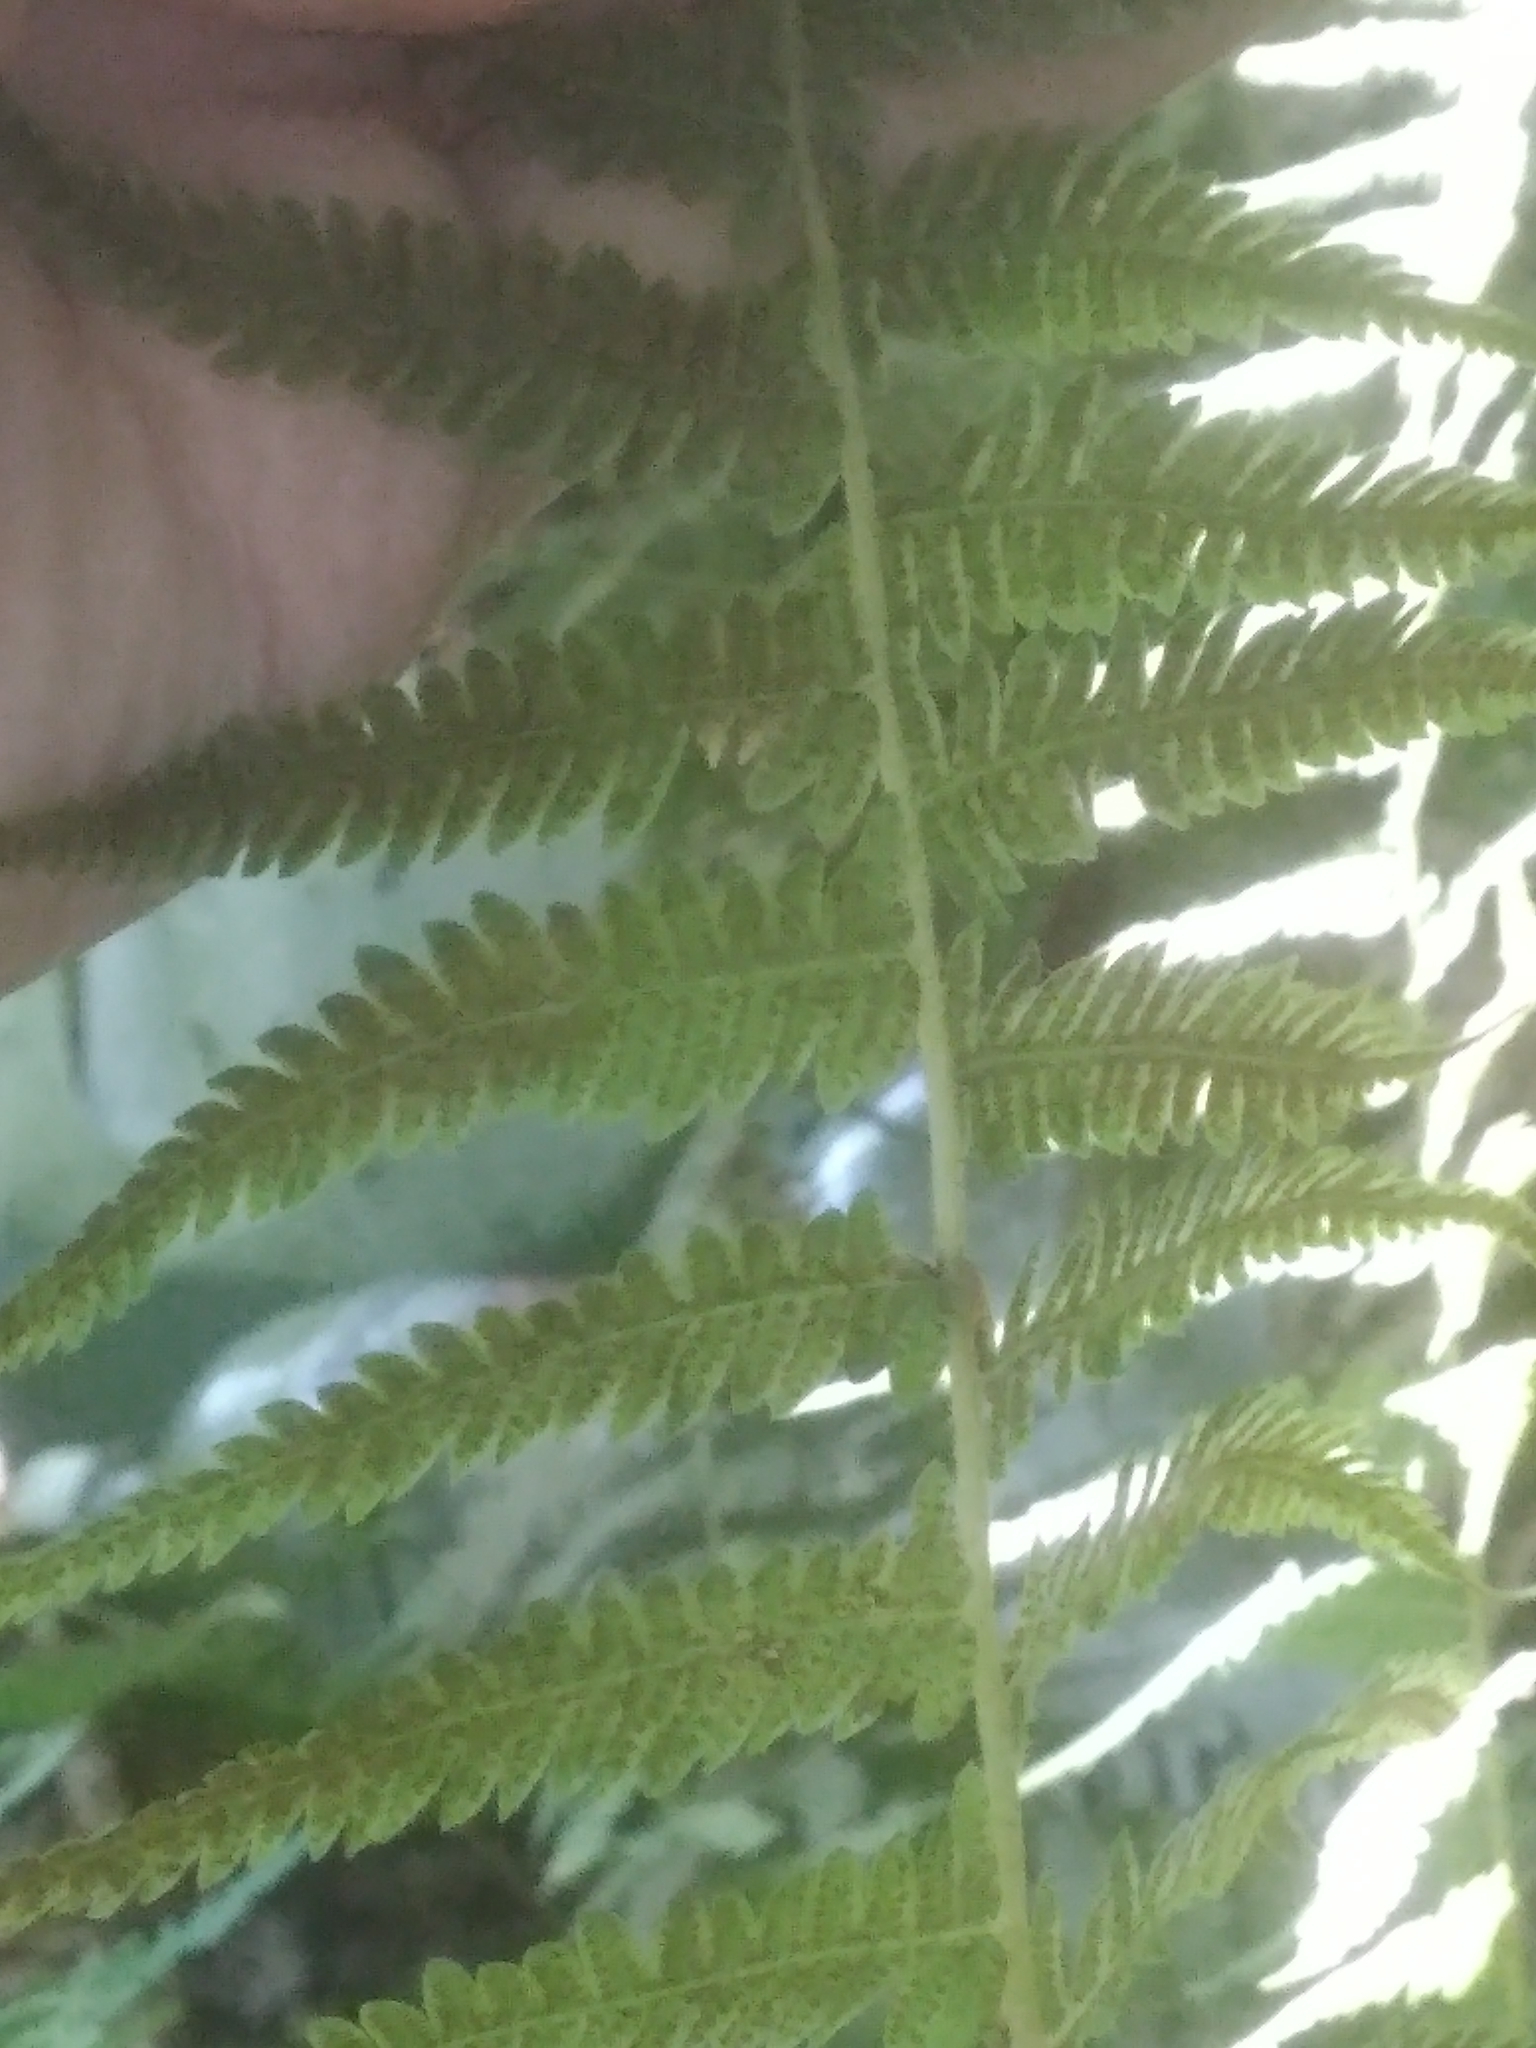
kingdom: Plantae
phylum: Tracheophyta
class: Polypodiopsida
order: Polypodiales
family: Thelypteridaceae
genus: Amauropelta
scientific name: Amauropelta noveboracensis
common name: New york fern
